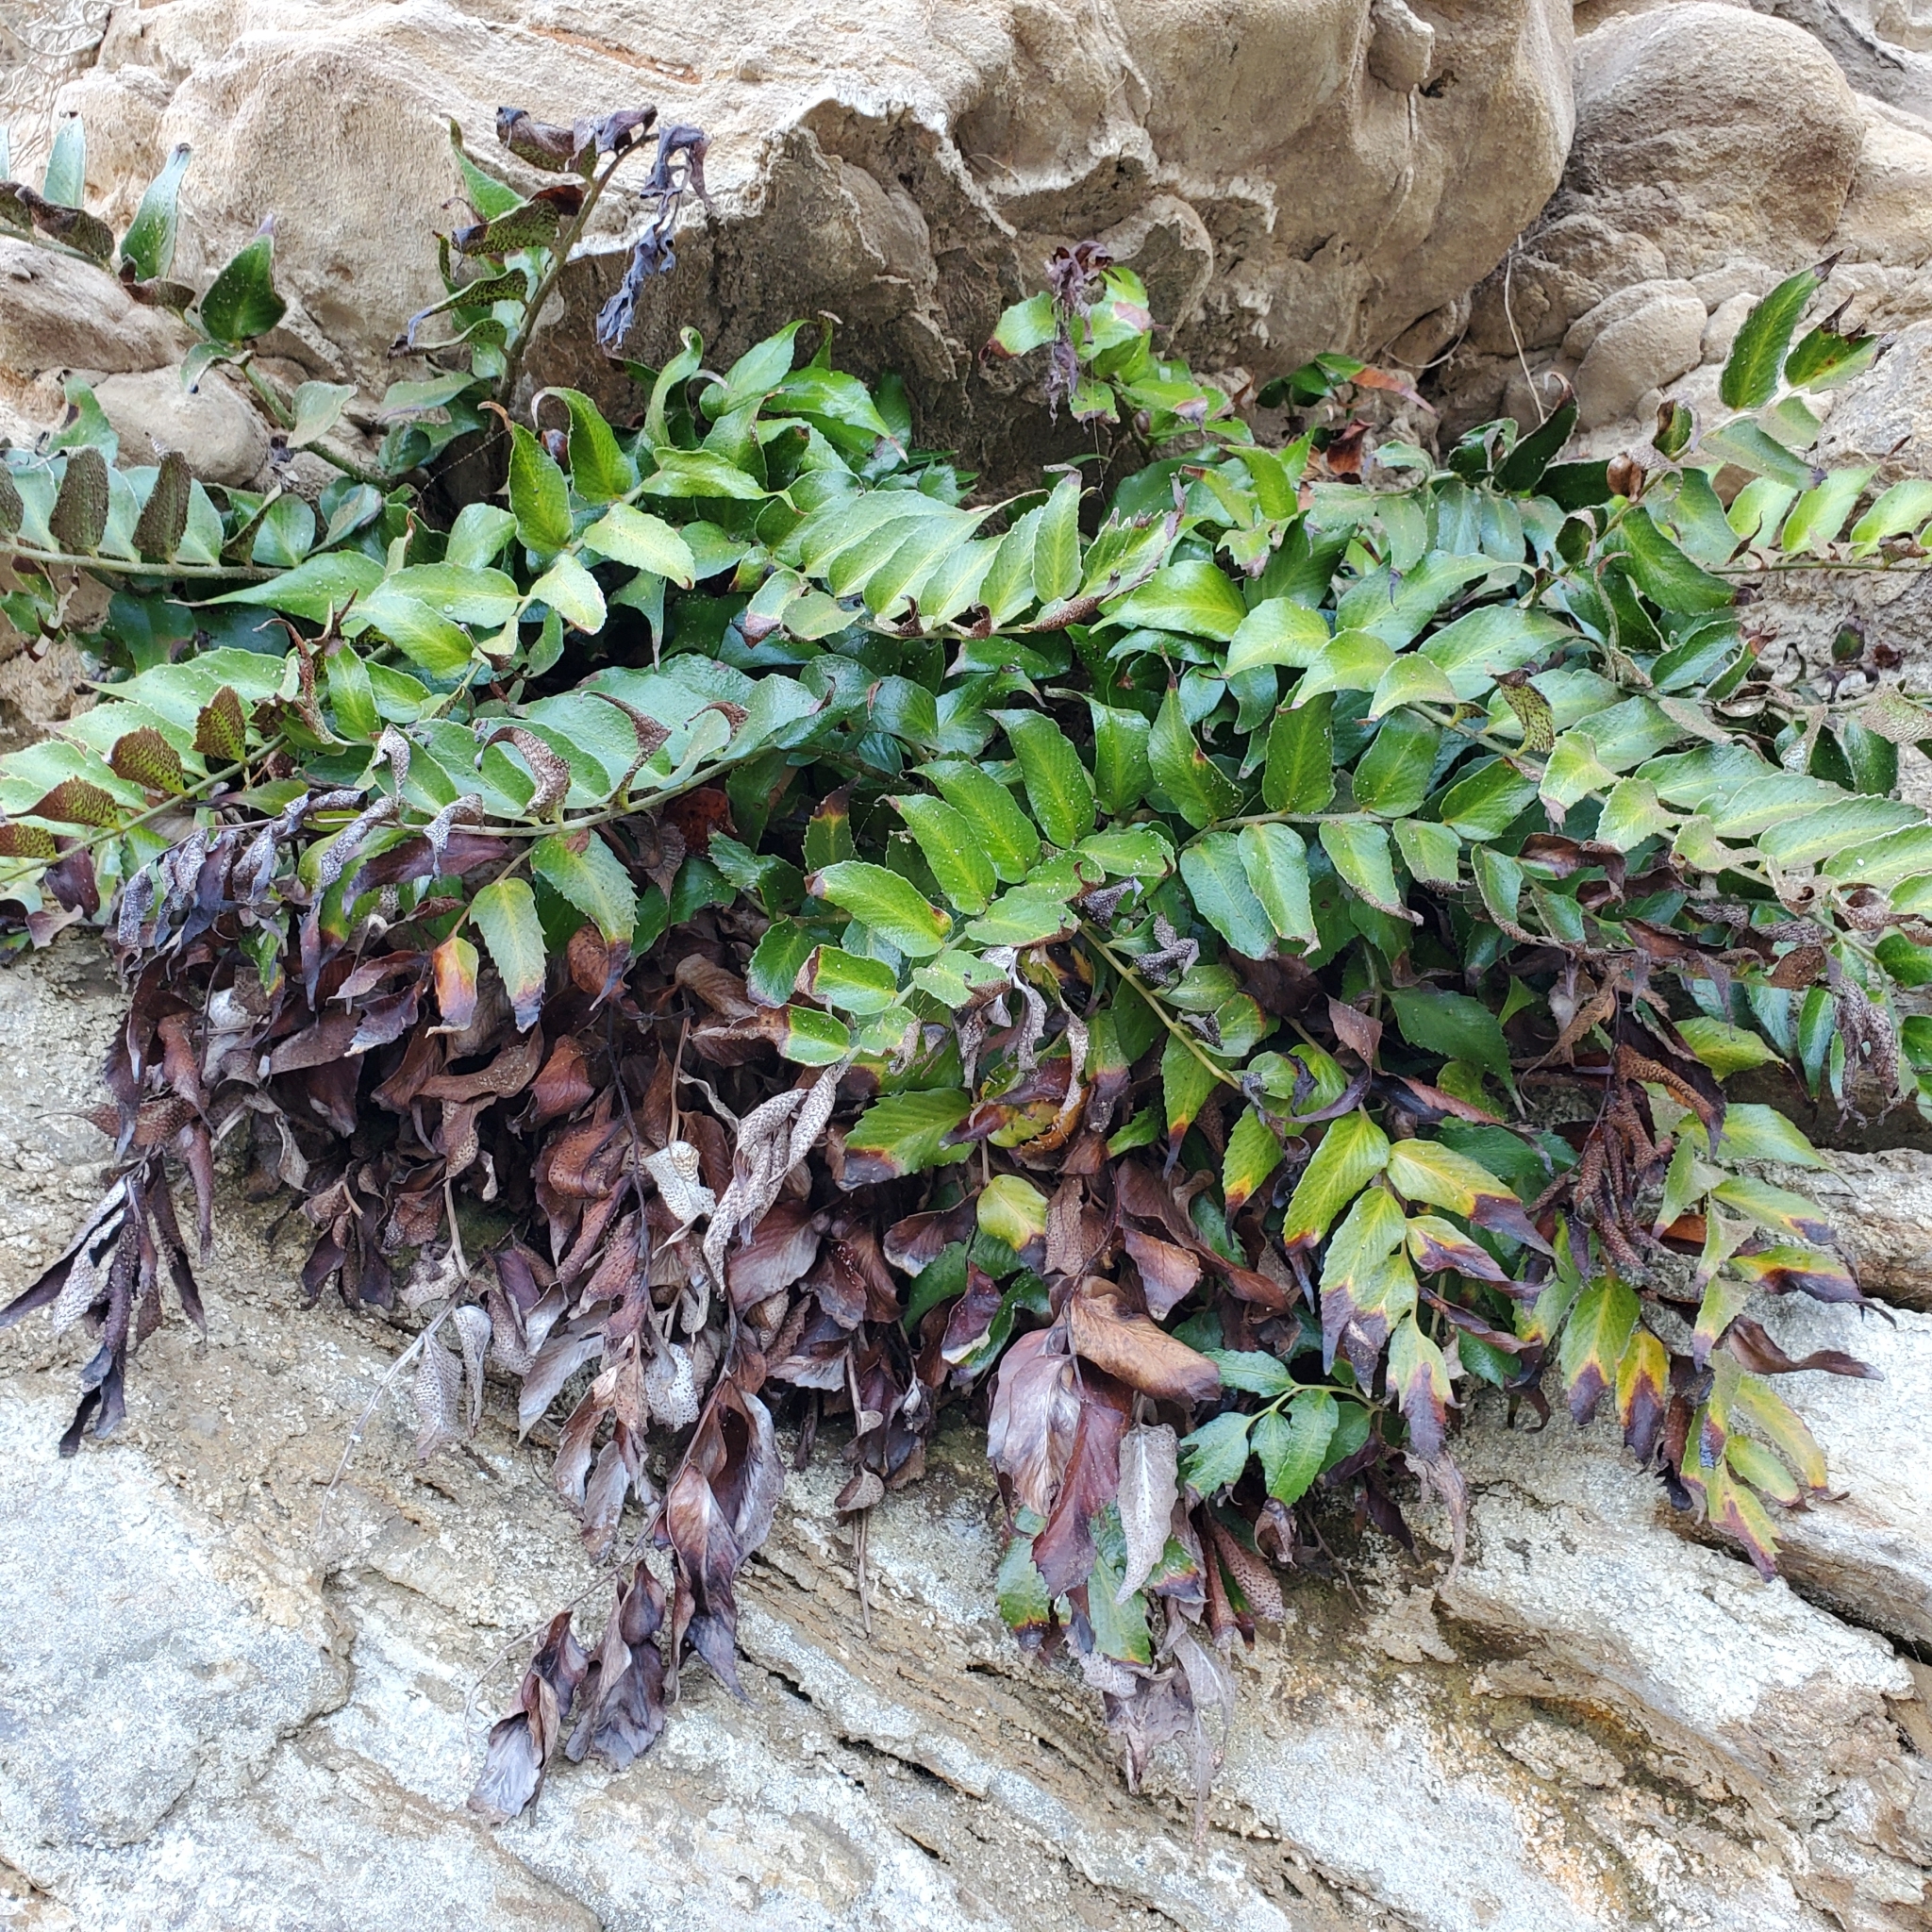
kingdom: Plantae
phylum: Tracheophyta
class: Polypodiopsida
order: Polypodiales
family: Dryopteridaceae
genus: Cyrtomium
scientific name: Cyrtomium falcatum
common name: House holly-fern
